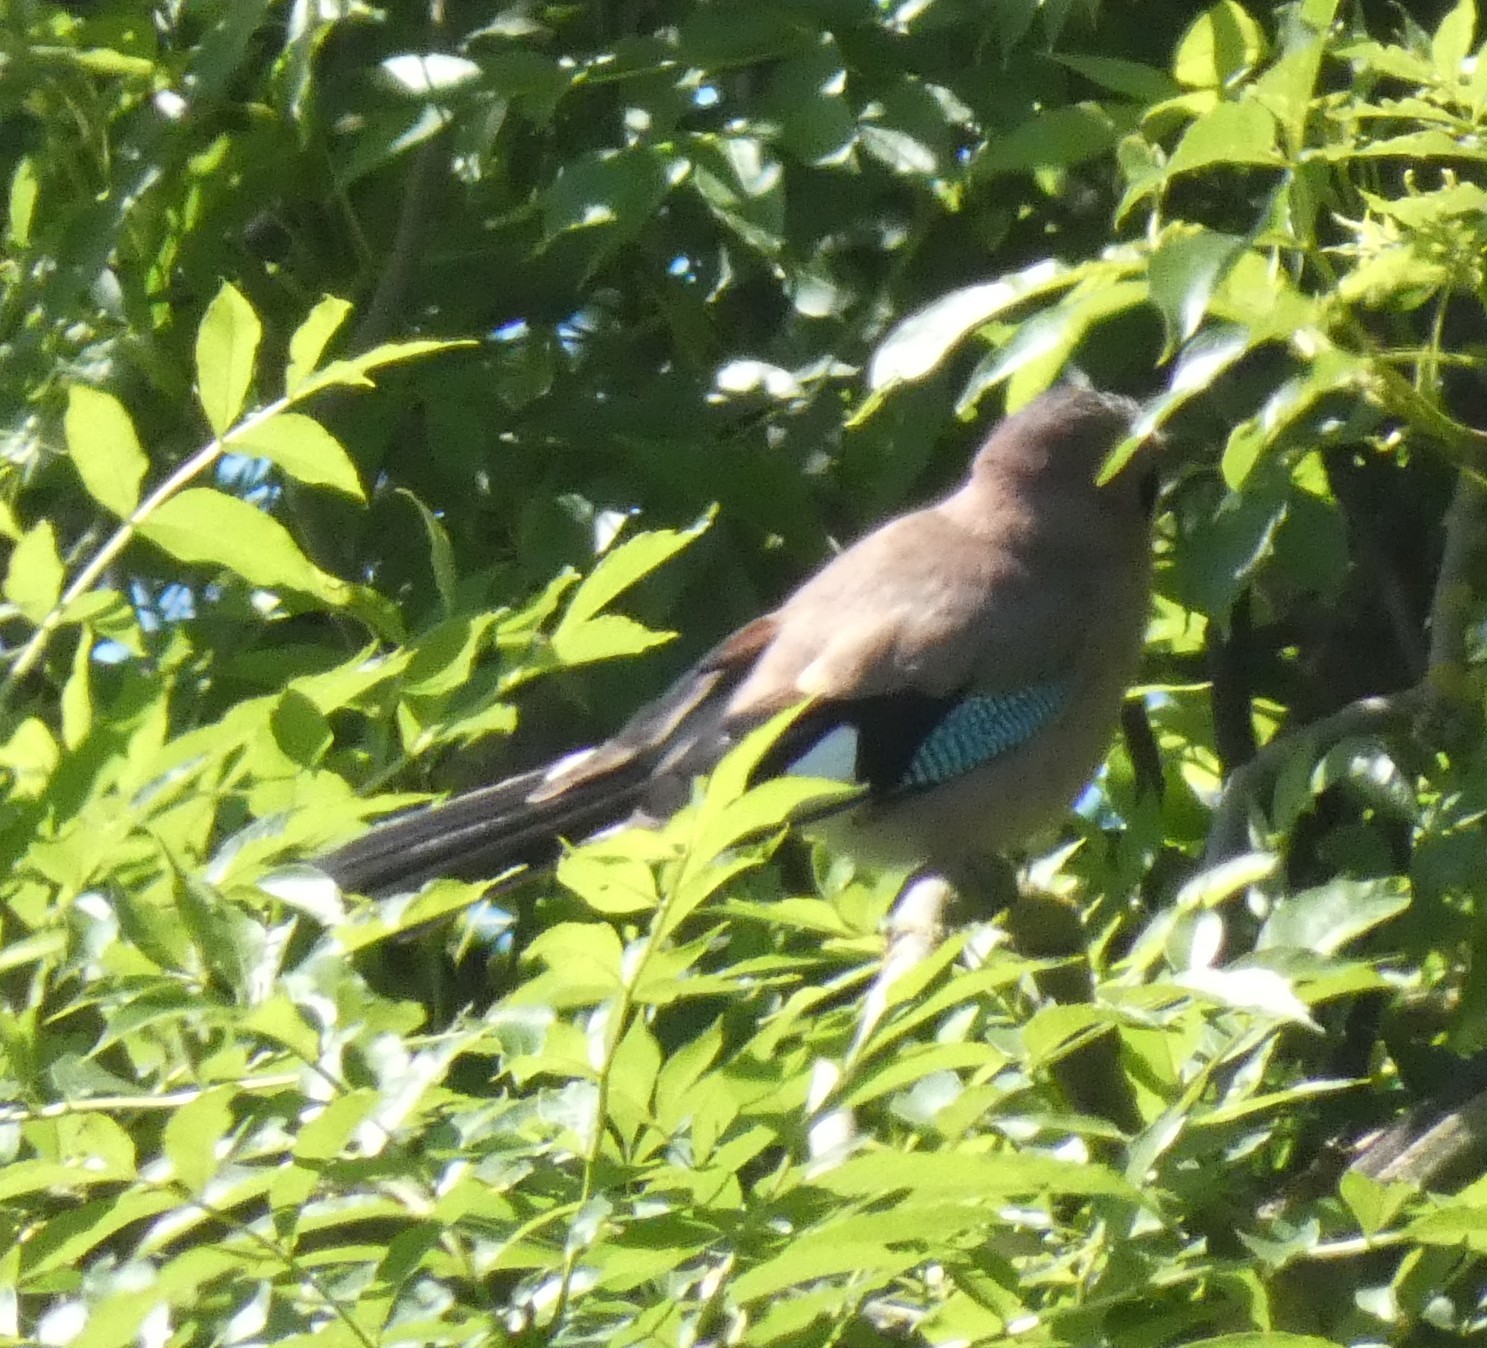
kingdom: Animalia
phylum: Chordata
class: Aves
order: Passeriformes
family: Corvidae
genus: Garrulus
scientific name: Garrulus glandarius
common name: Eurasian jay
